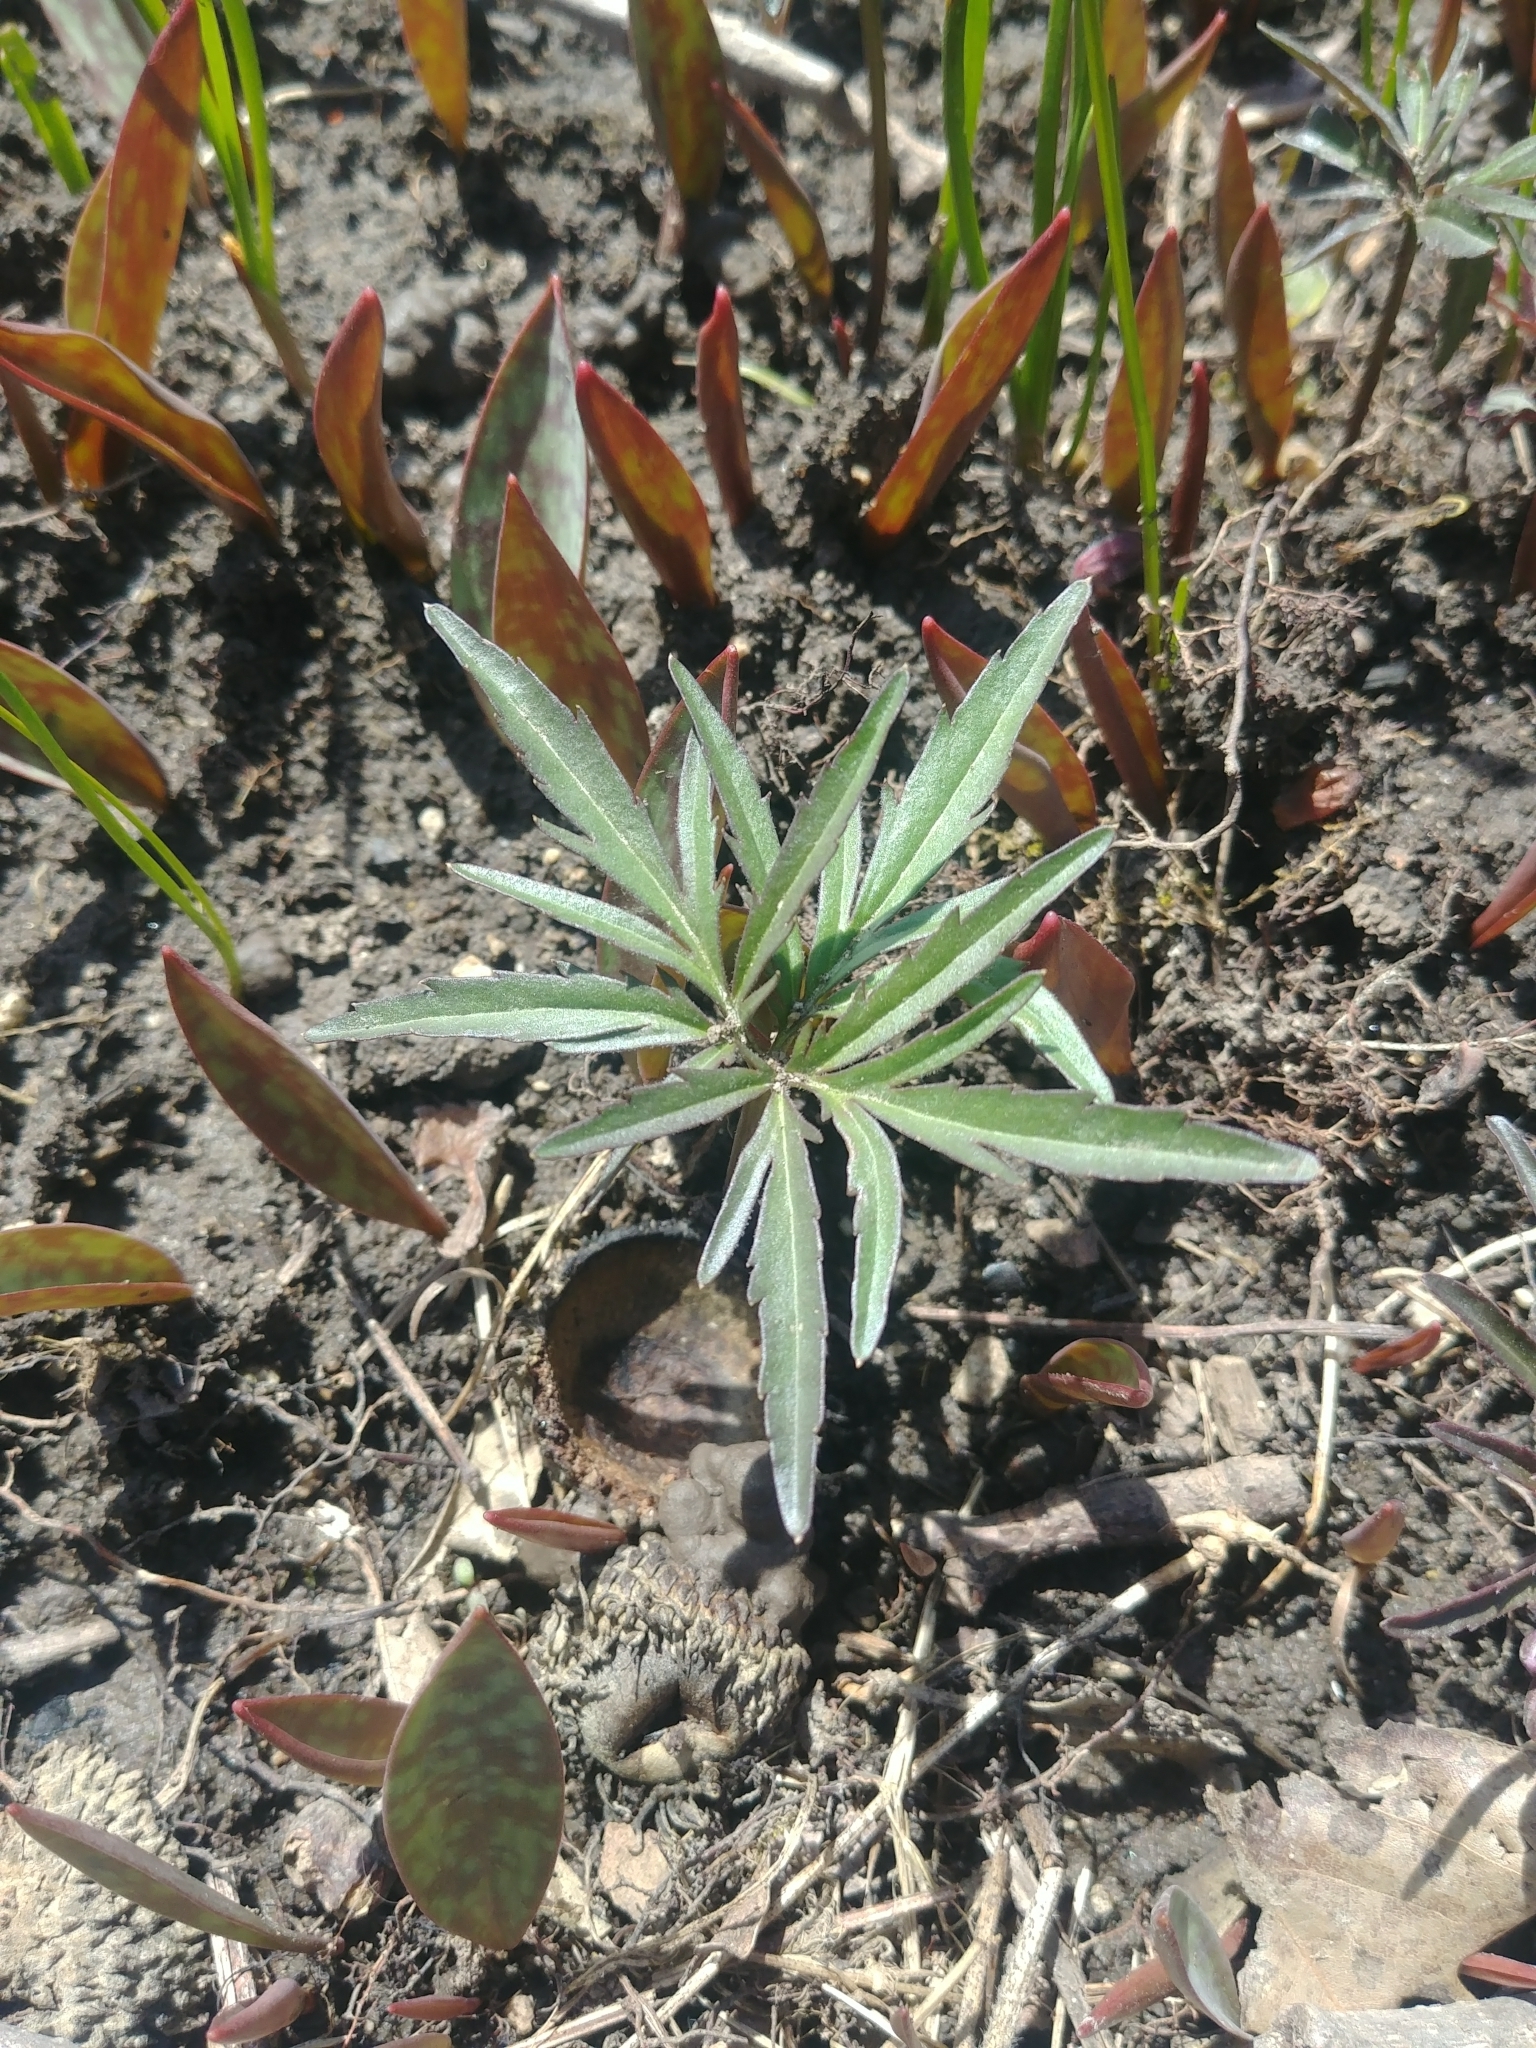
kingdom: Plantae
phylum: Tracheophyta
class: Magnoliopsida
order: Brassicales
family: Brassicaceae
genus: Cardamine
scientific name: Cardamine concatenata
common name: Cut-leaf toothcup
